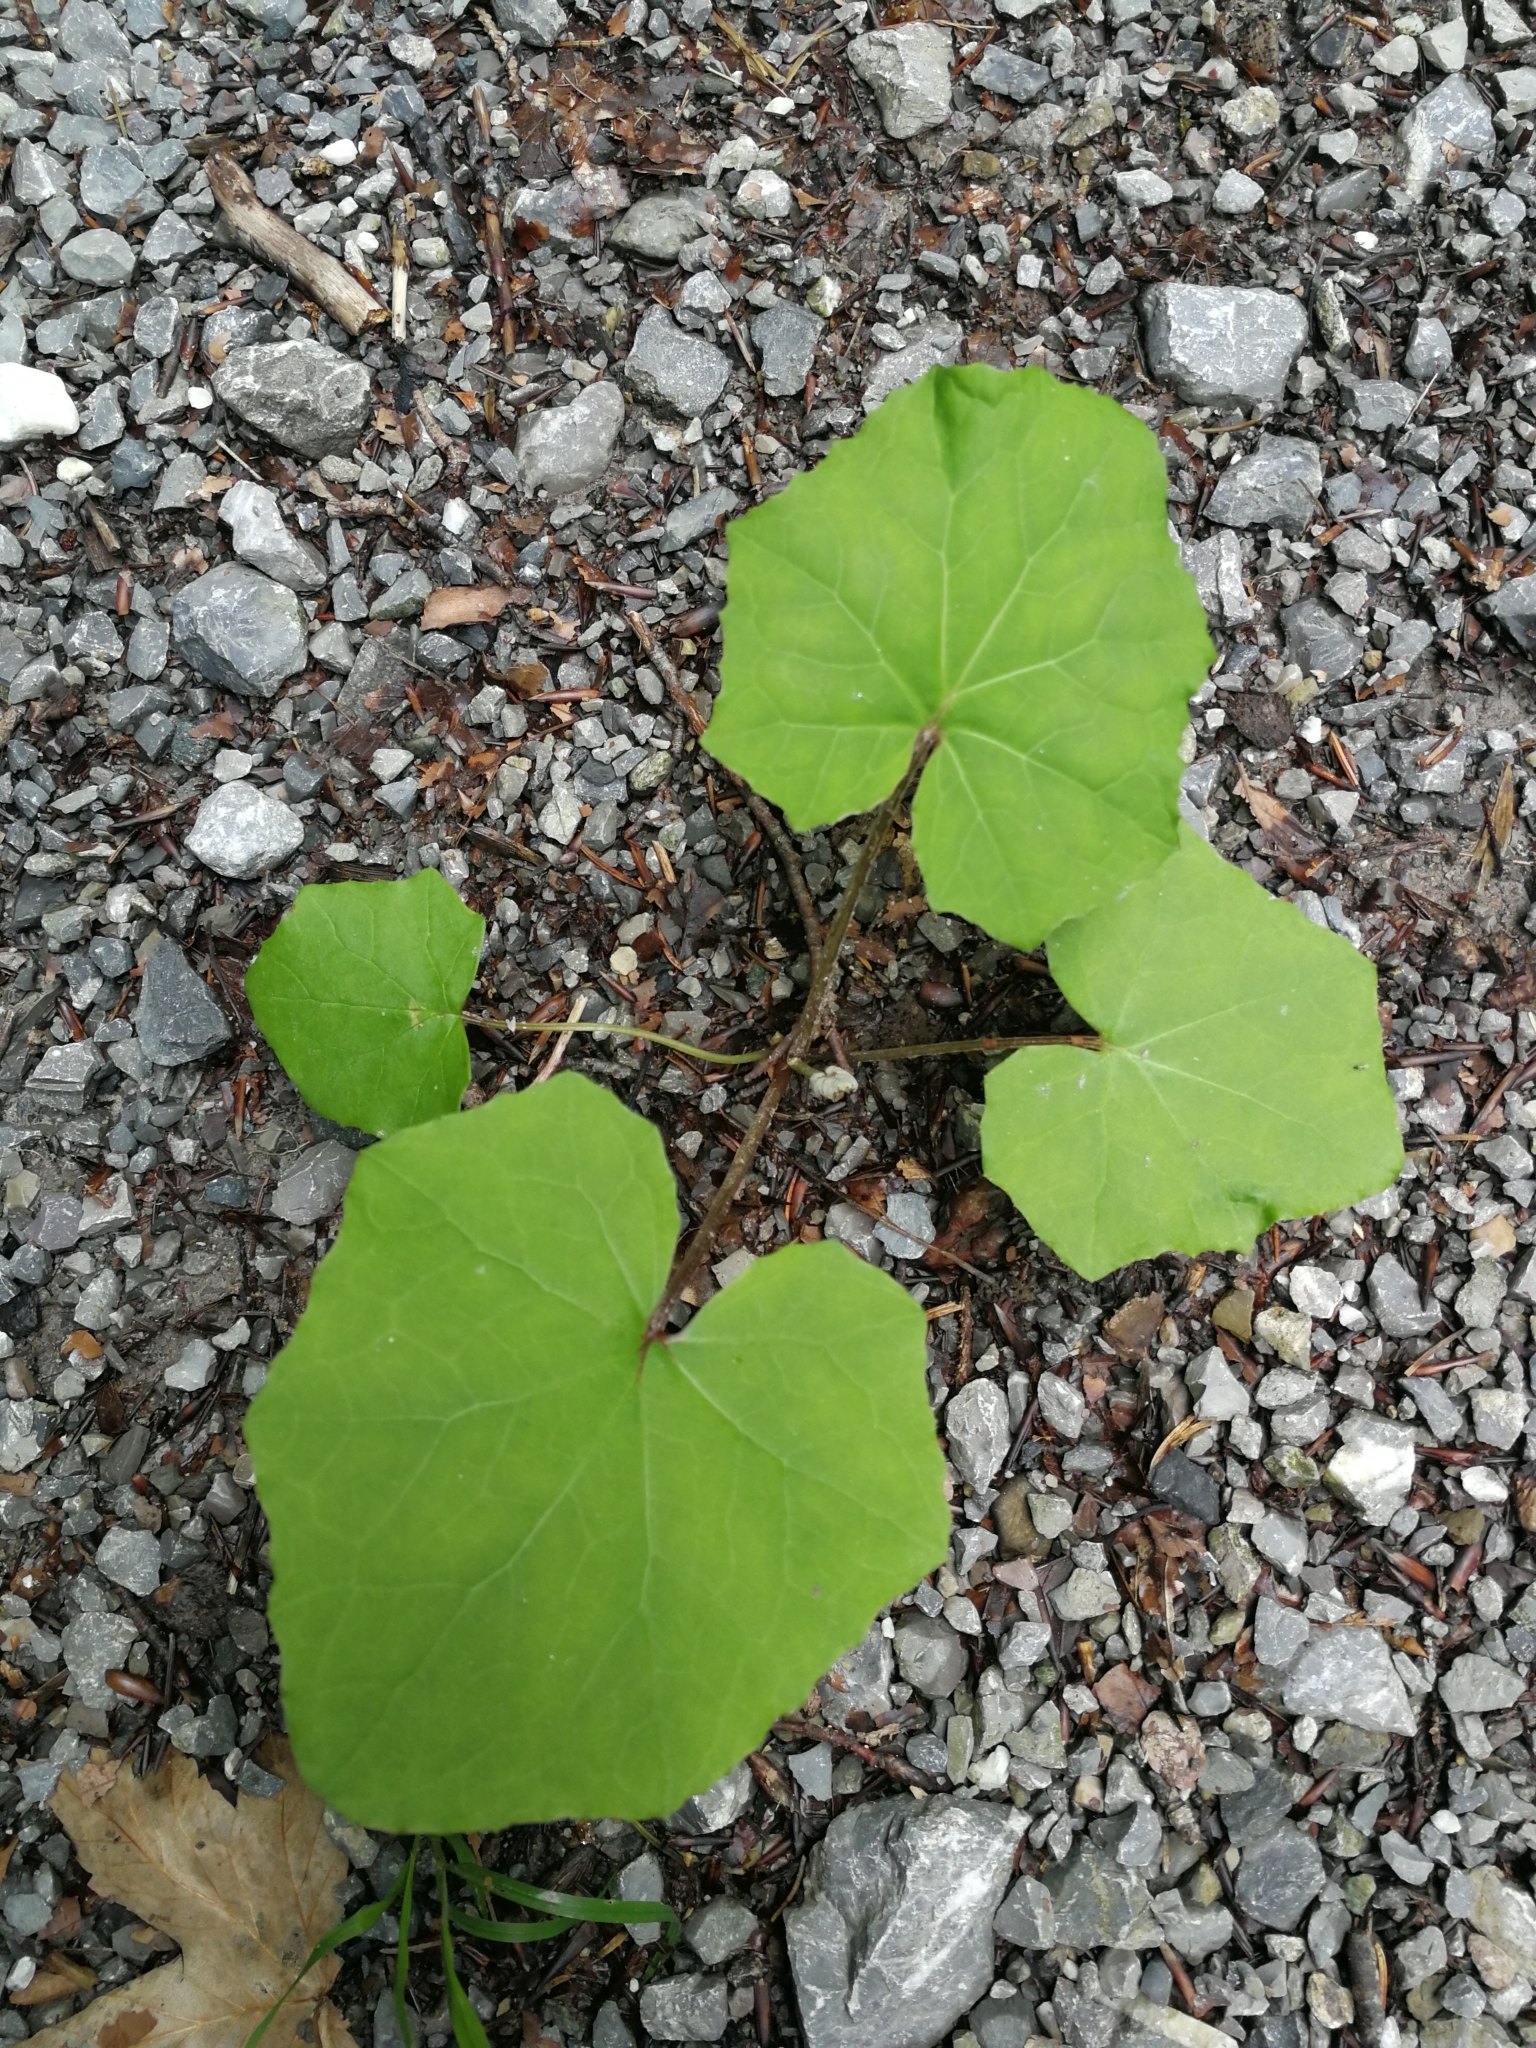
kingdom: Plantae
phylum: Tracheophyta
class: Magnoliopsida
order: Asterales
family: Asteraceae
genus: Tussilago
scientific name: Tussilago farfara
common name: Coltsfoot
